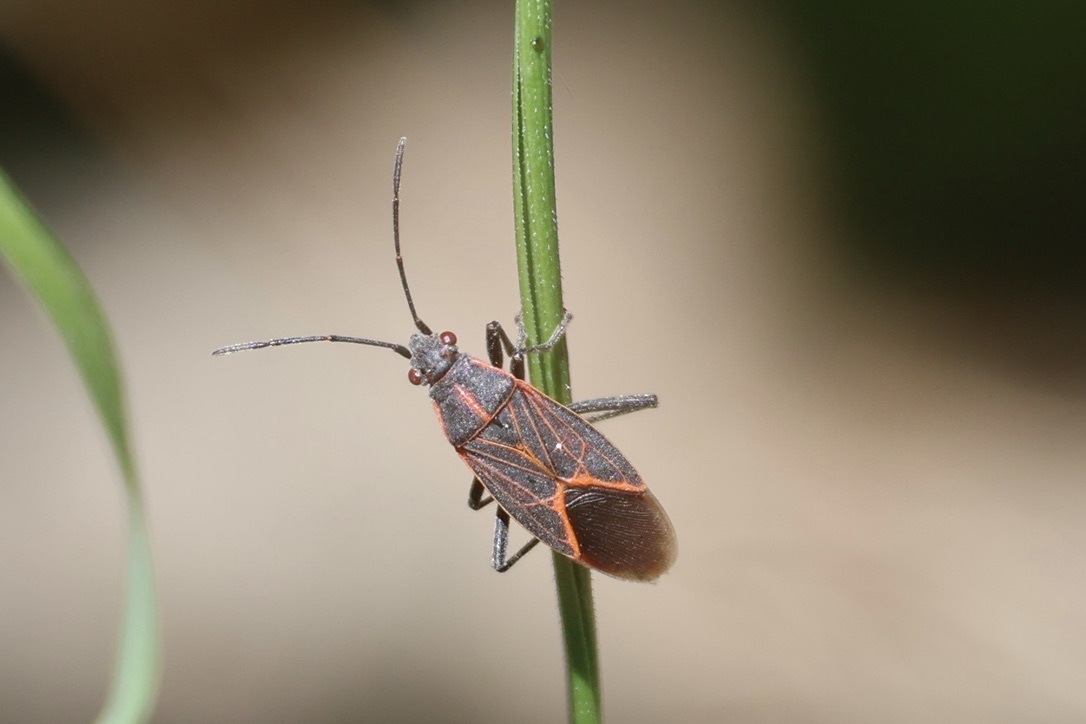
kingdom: Animalia
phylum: Arthropoda
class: Insecta
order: Hemiptera
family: Rhopalidae
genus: Boisea
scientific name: Boisea rubrolineata
